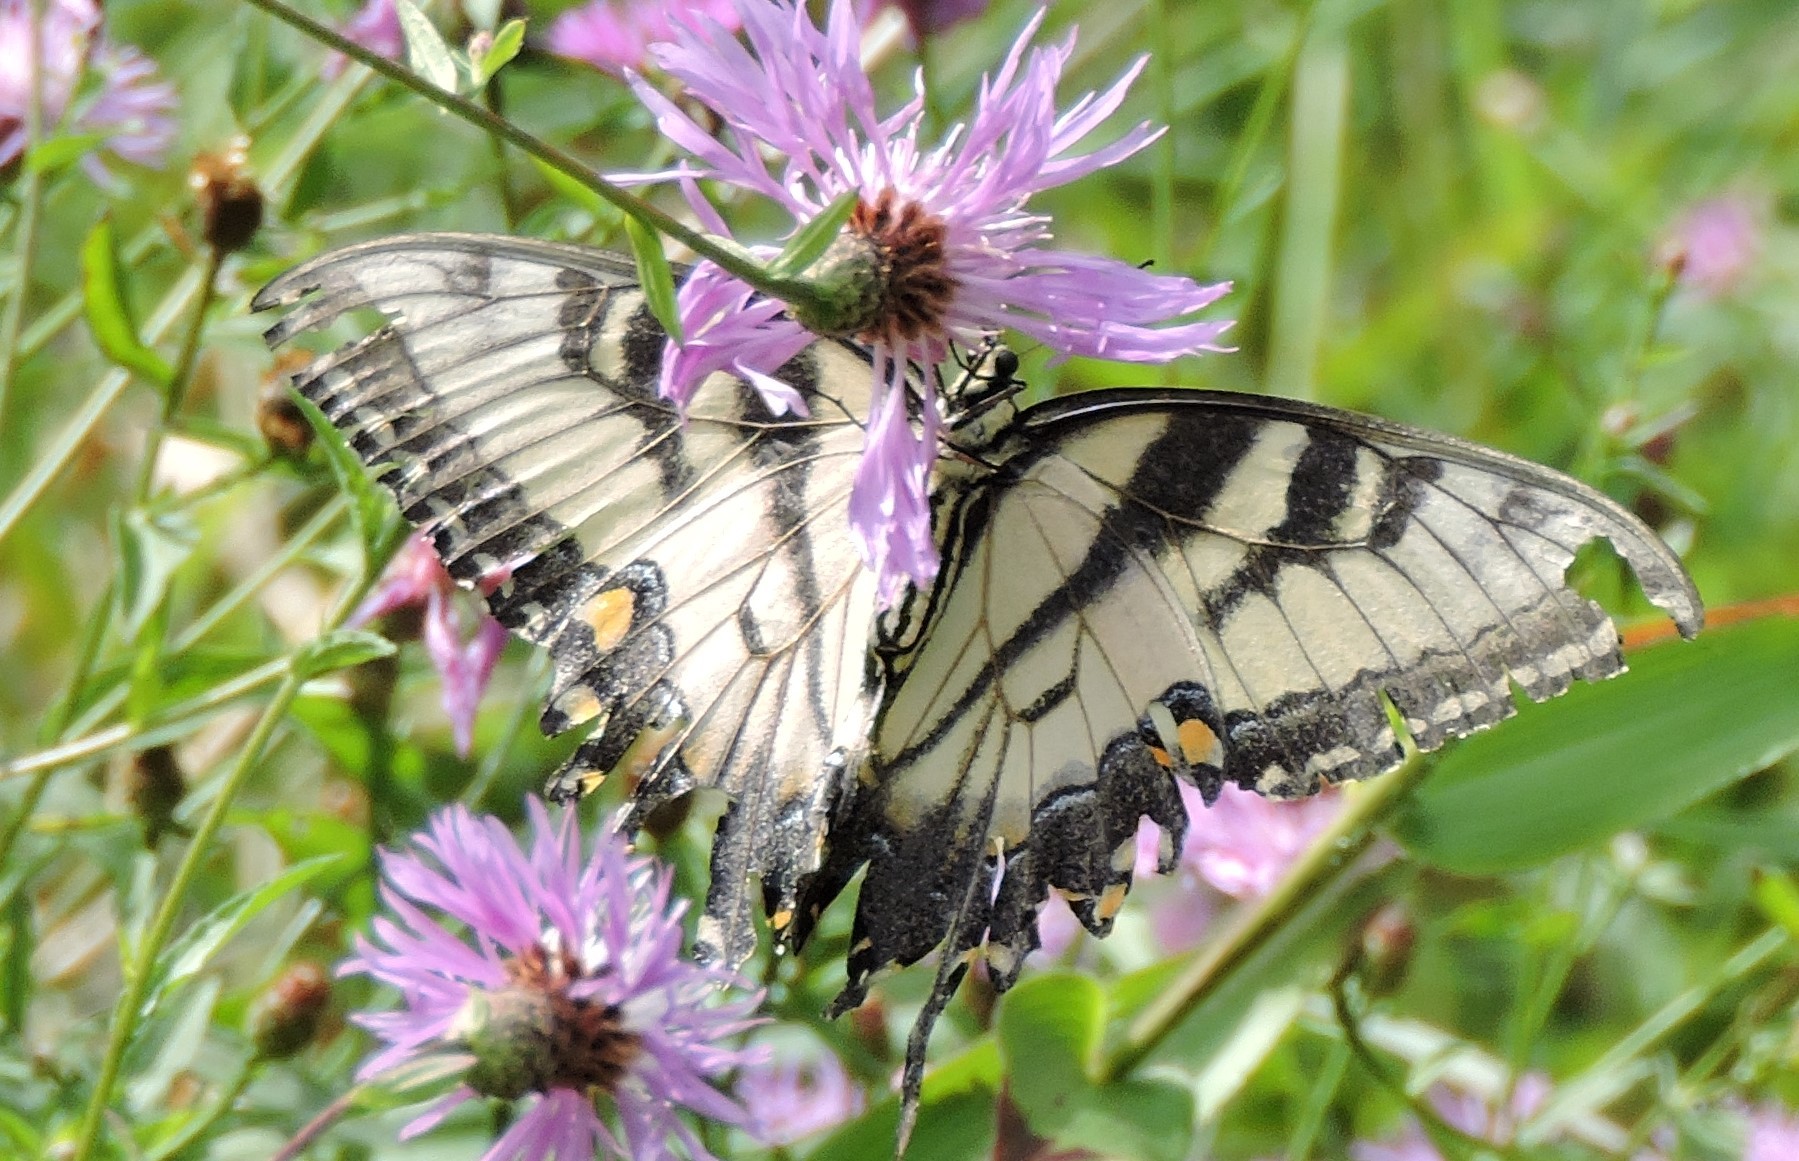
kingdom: Animalia
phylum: Arthropoda
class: Insecta
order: Lepidoptera
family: Papilionidae
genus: Papilio
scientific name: Papilio glaucus
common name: Tiger swallowtail
